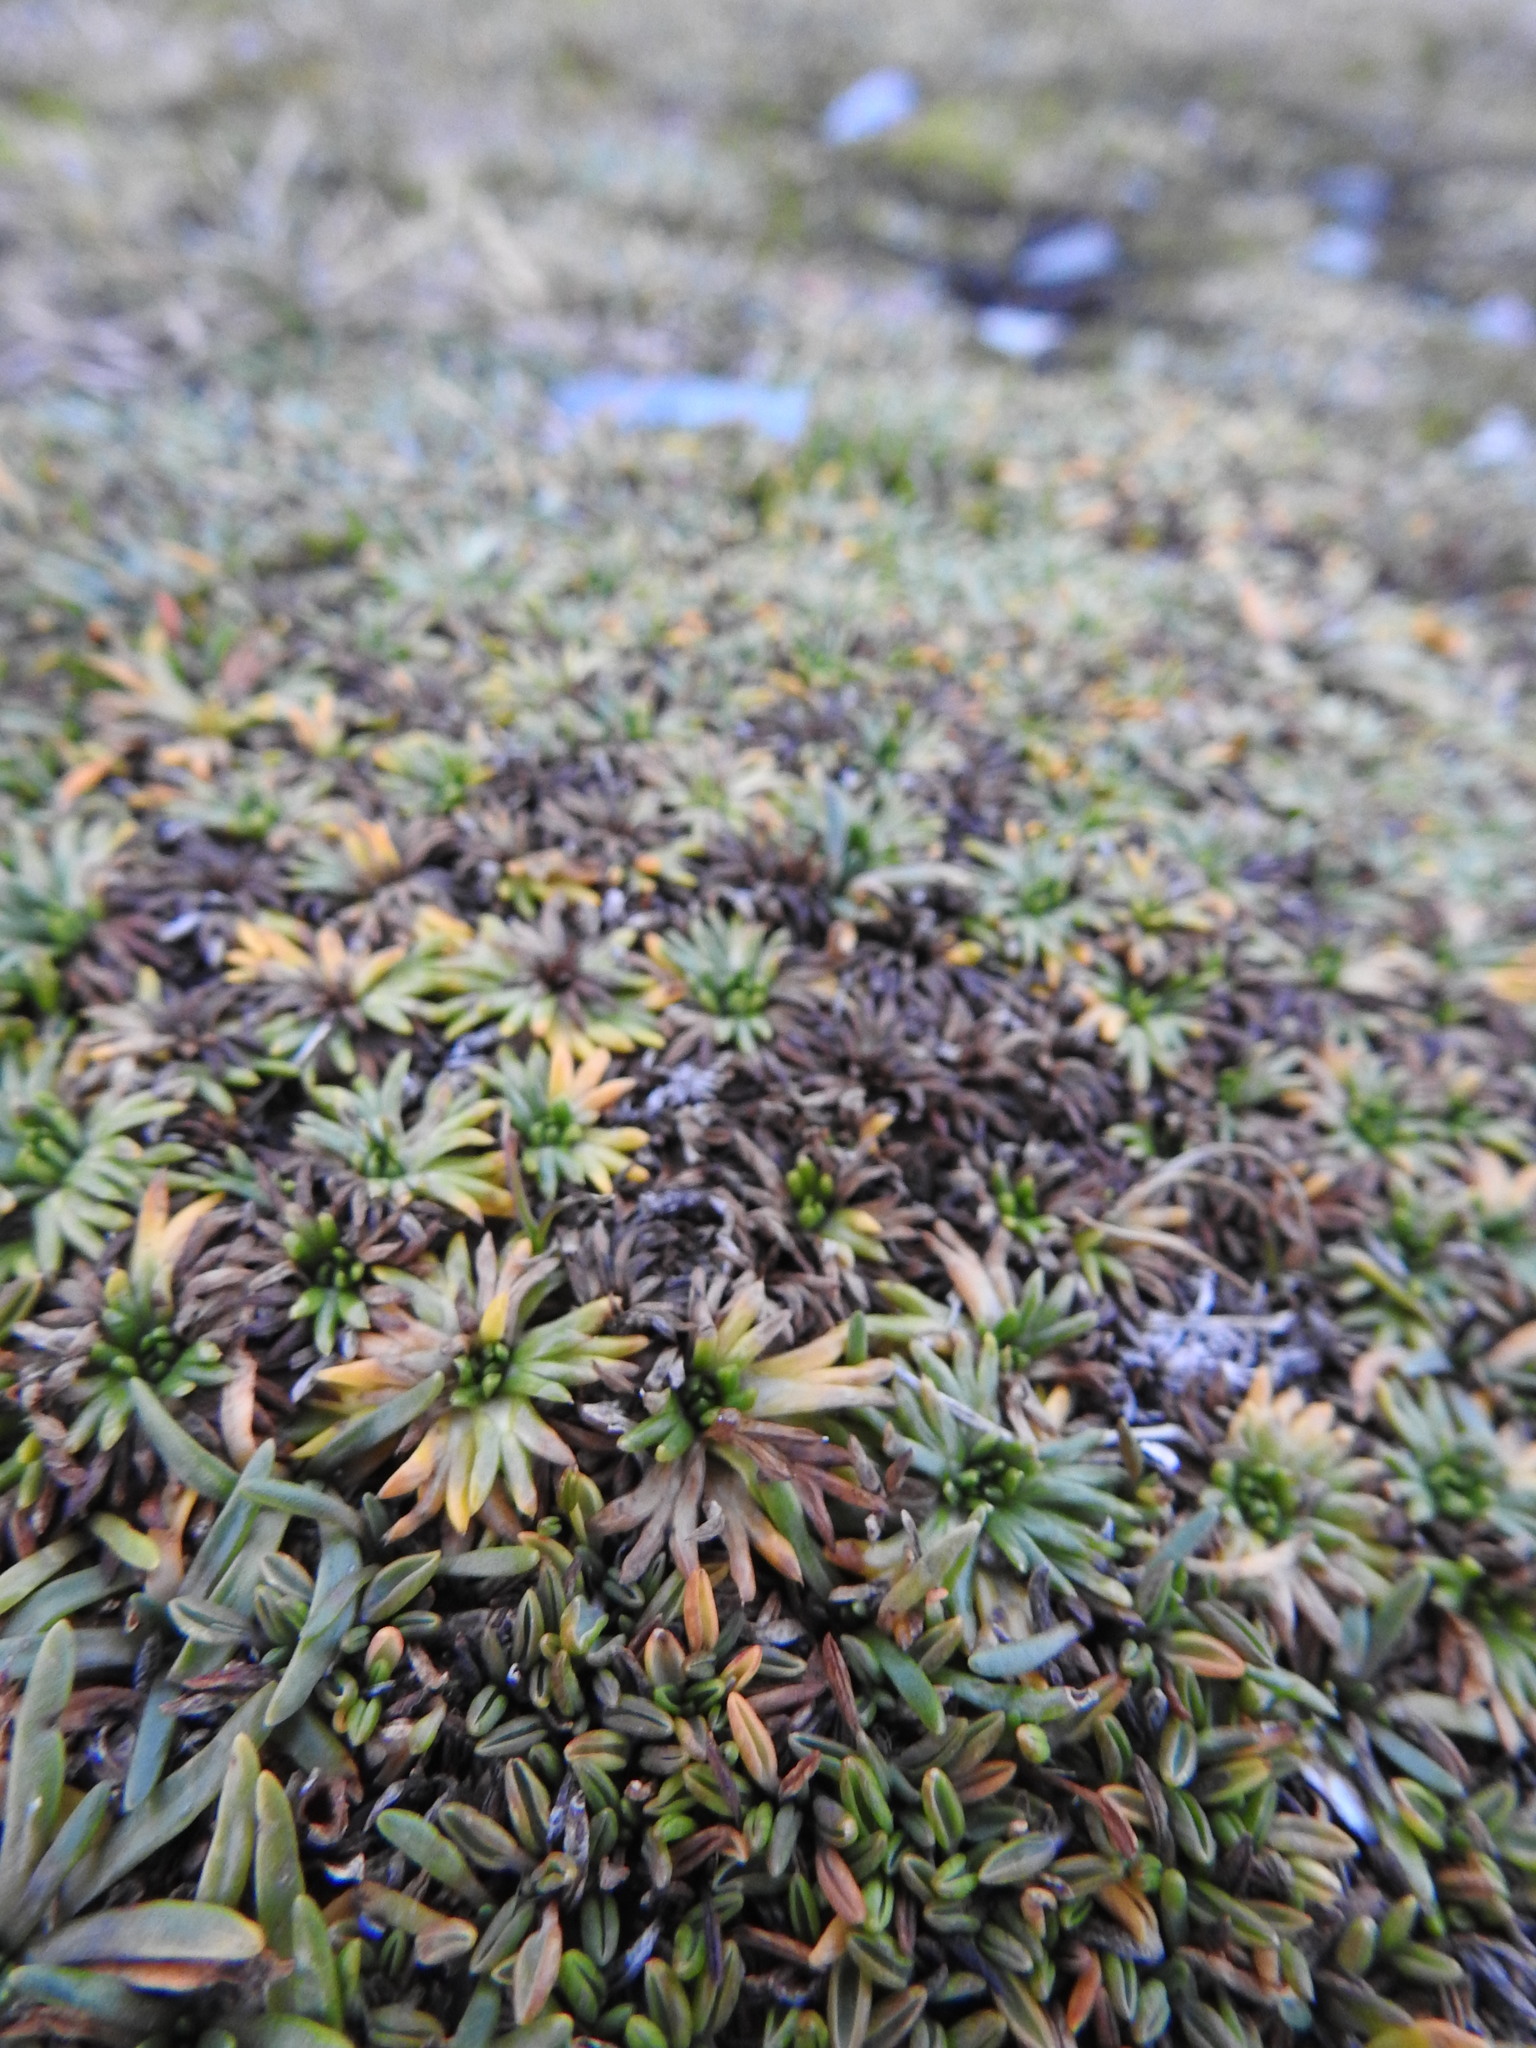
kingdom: Plantae
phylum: Tracheophyta
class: Magnoliopsida
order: Apiales
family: Apiaceae
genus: Azorella
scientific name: Azorella trifurcata
